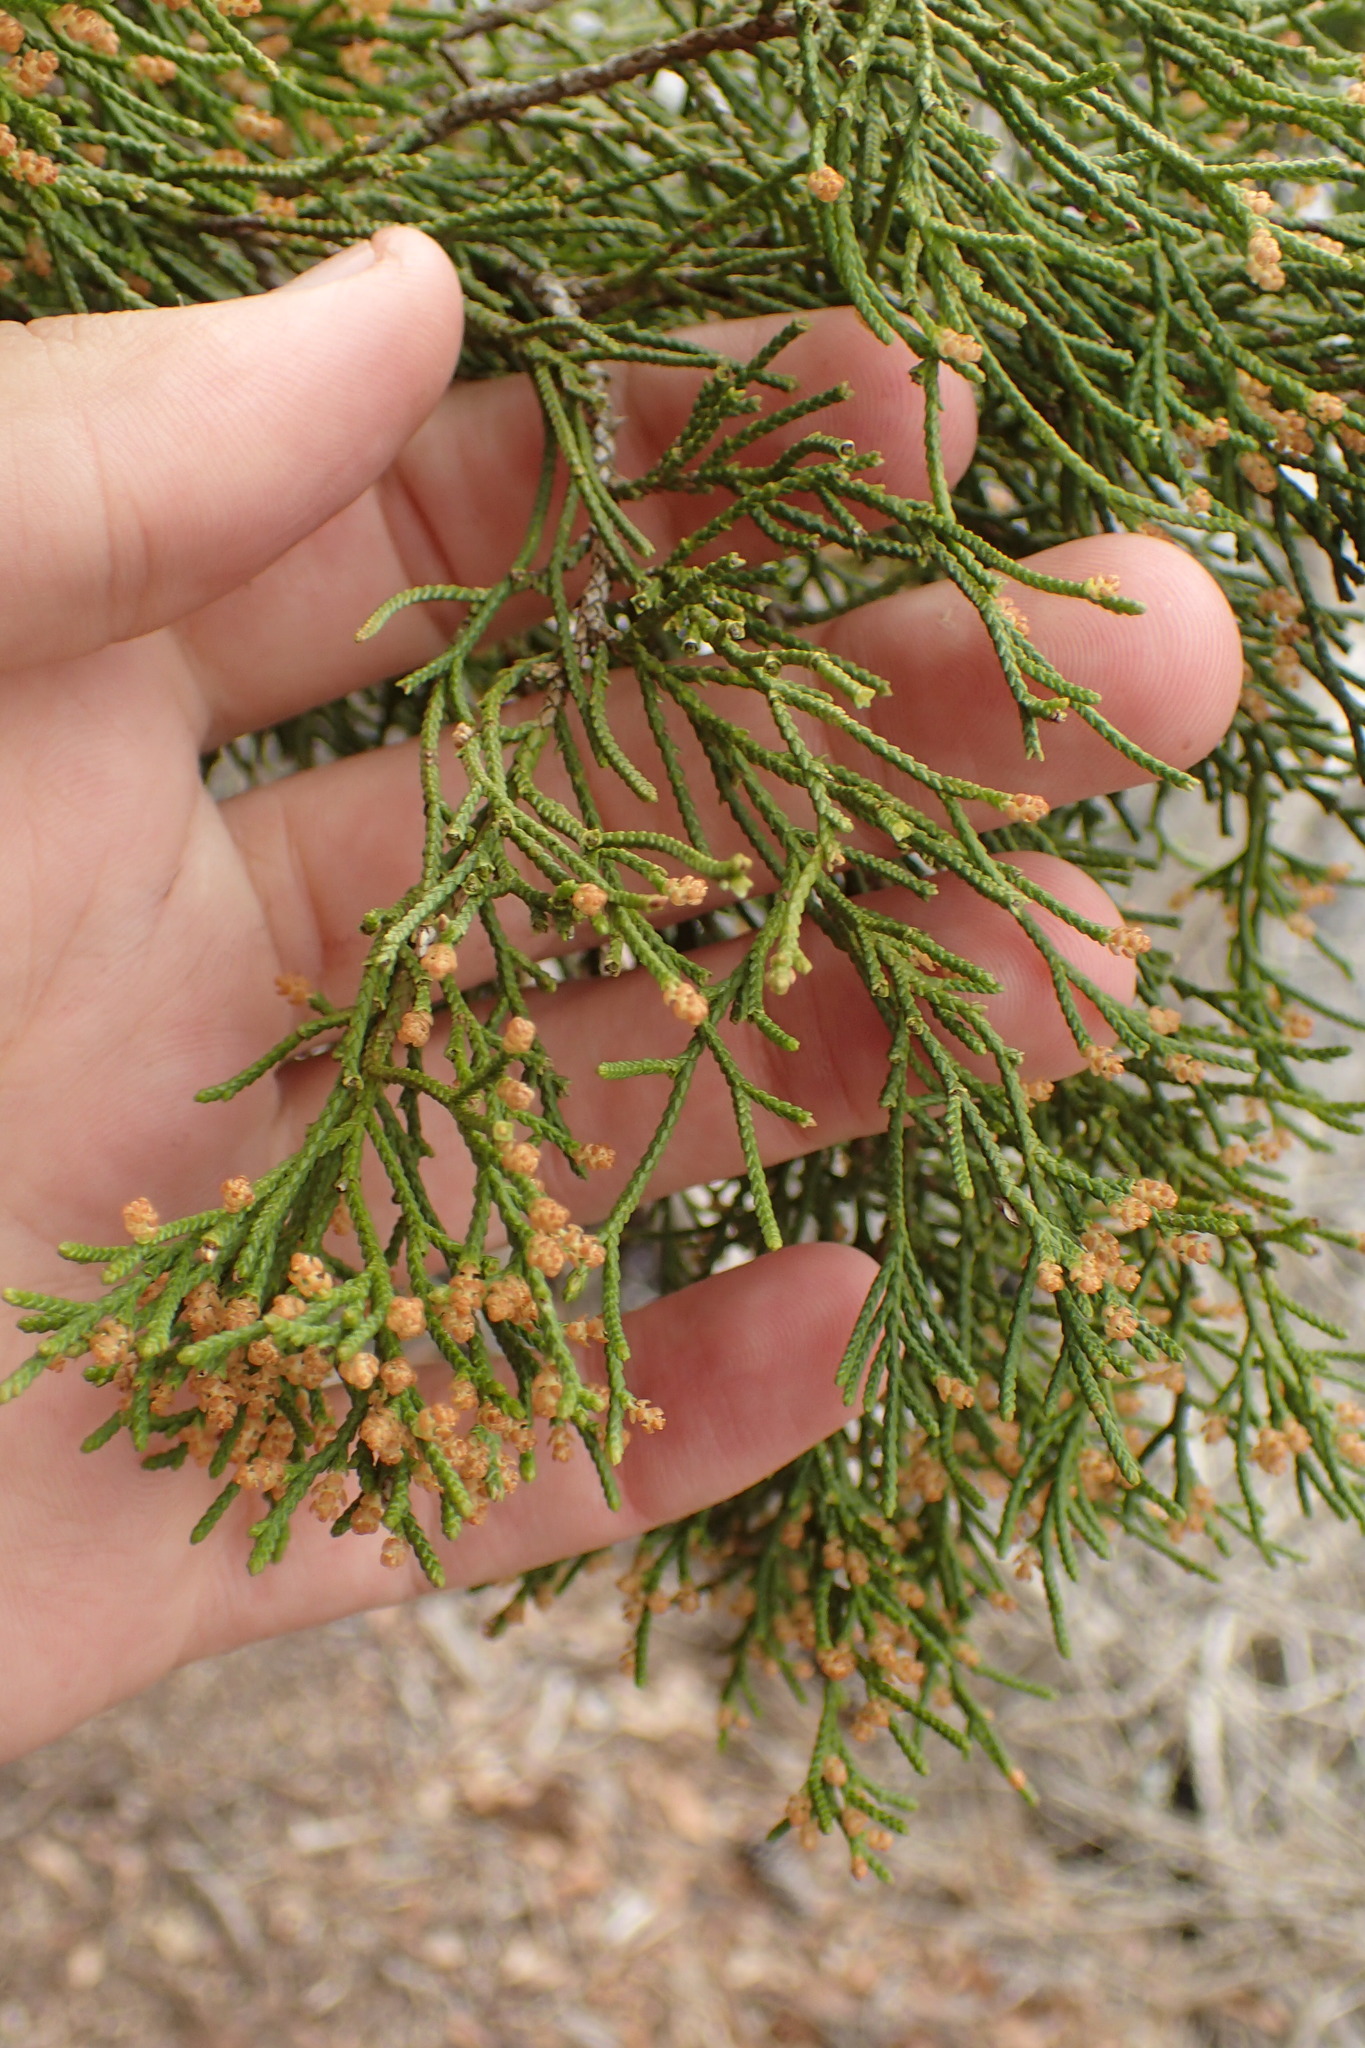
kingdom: Plantae
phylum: Tracheophyta
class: Pinopsida
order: Pinales
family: Cupressaceae
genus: Juniperus
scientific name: Juniperus virginiana
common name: Red juniper
